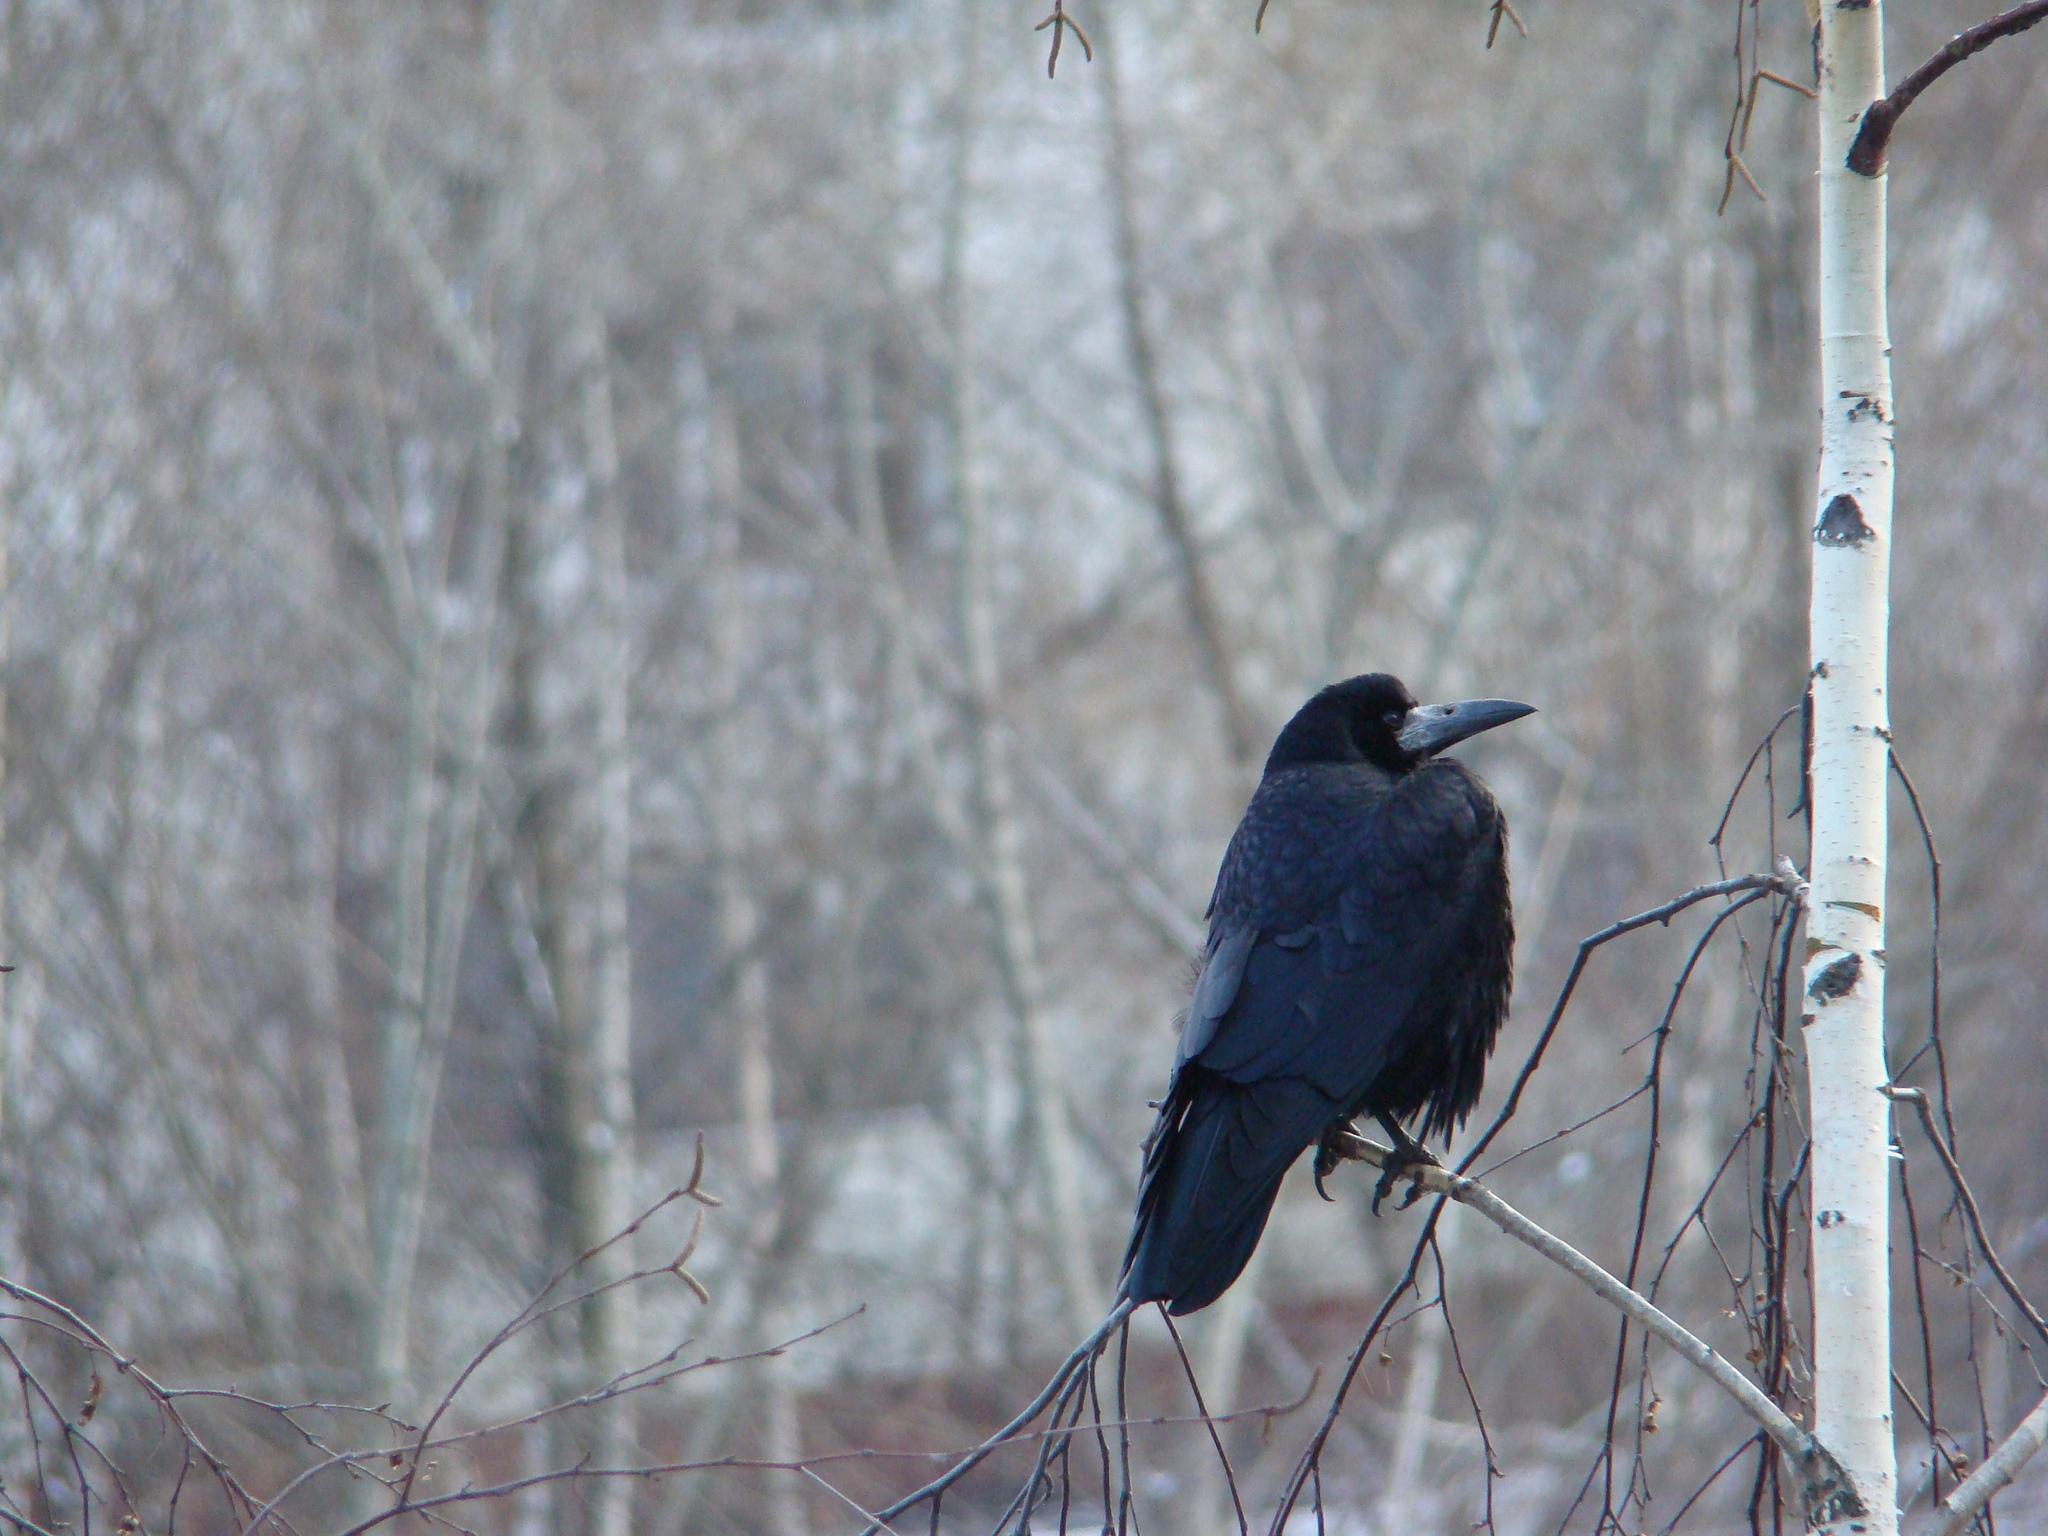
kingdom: Animalia
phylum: Chordata
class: Aves
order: Passeriformes
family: Corvidae
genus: Corvus
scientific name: Corvus frugilegus
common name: Rook
